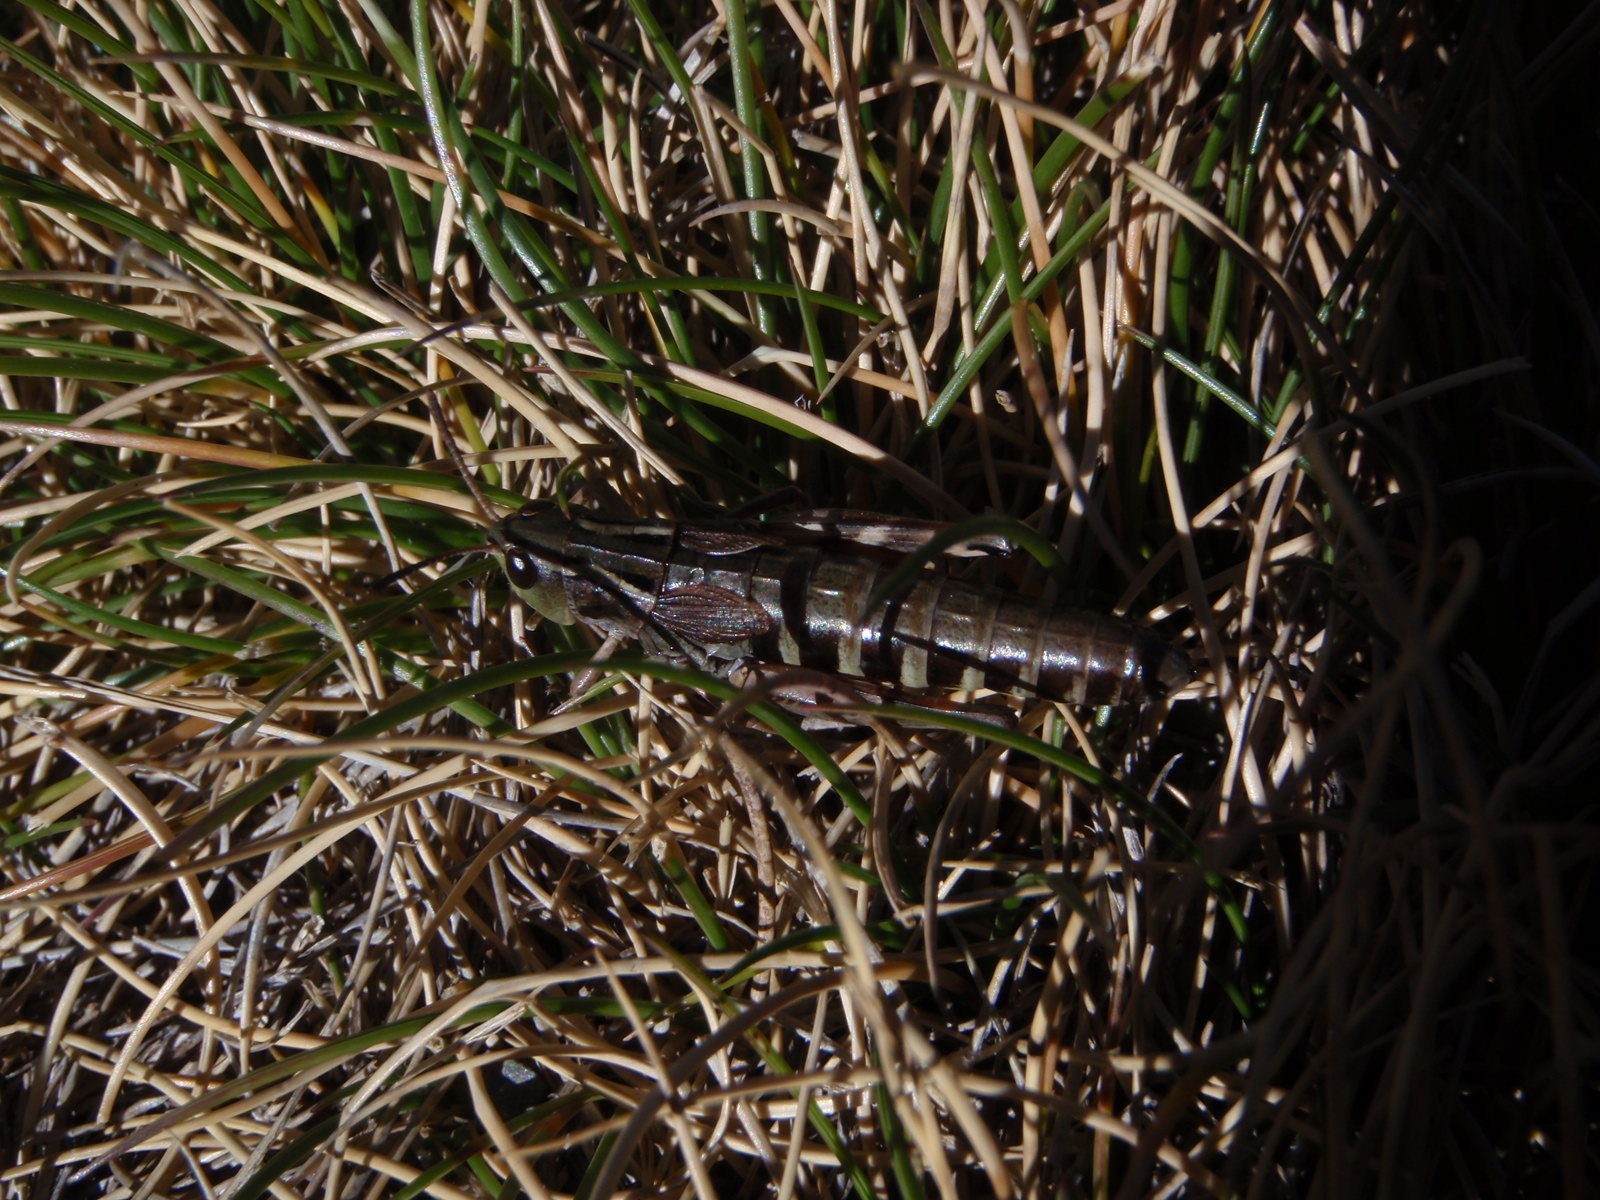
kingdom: Animalia
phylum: Arthropoda
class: Insecta
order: Orthoptera
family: Acrididae
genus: Gomphoceridius
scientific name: Gomphoceridius brevipenne
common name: Pyrenean short-winged grasshopper
